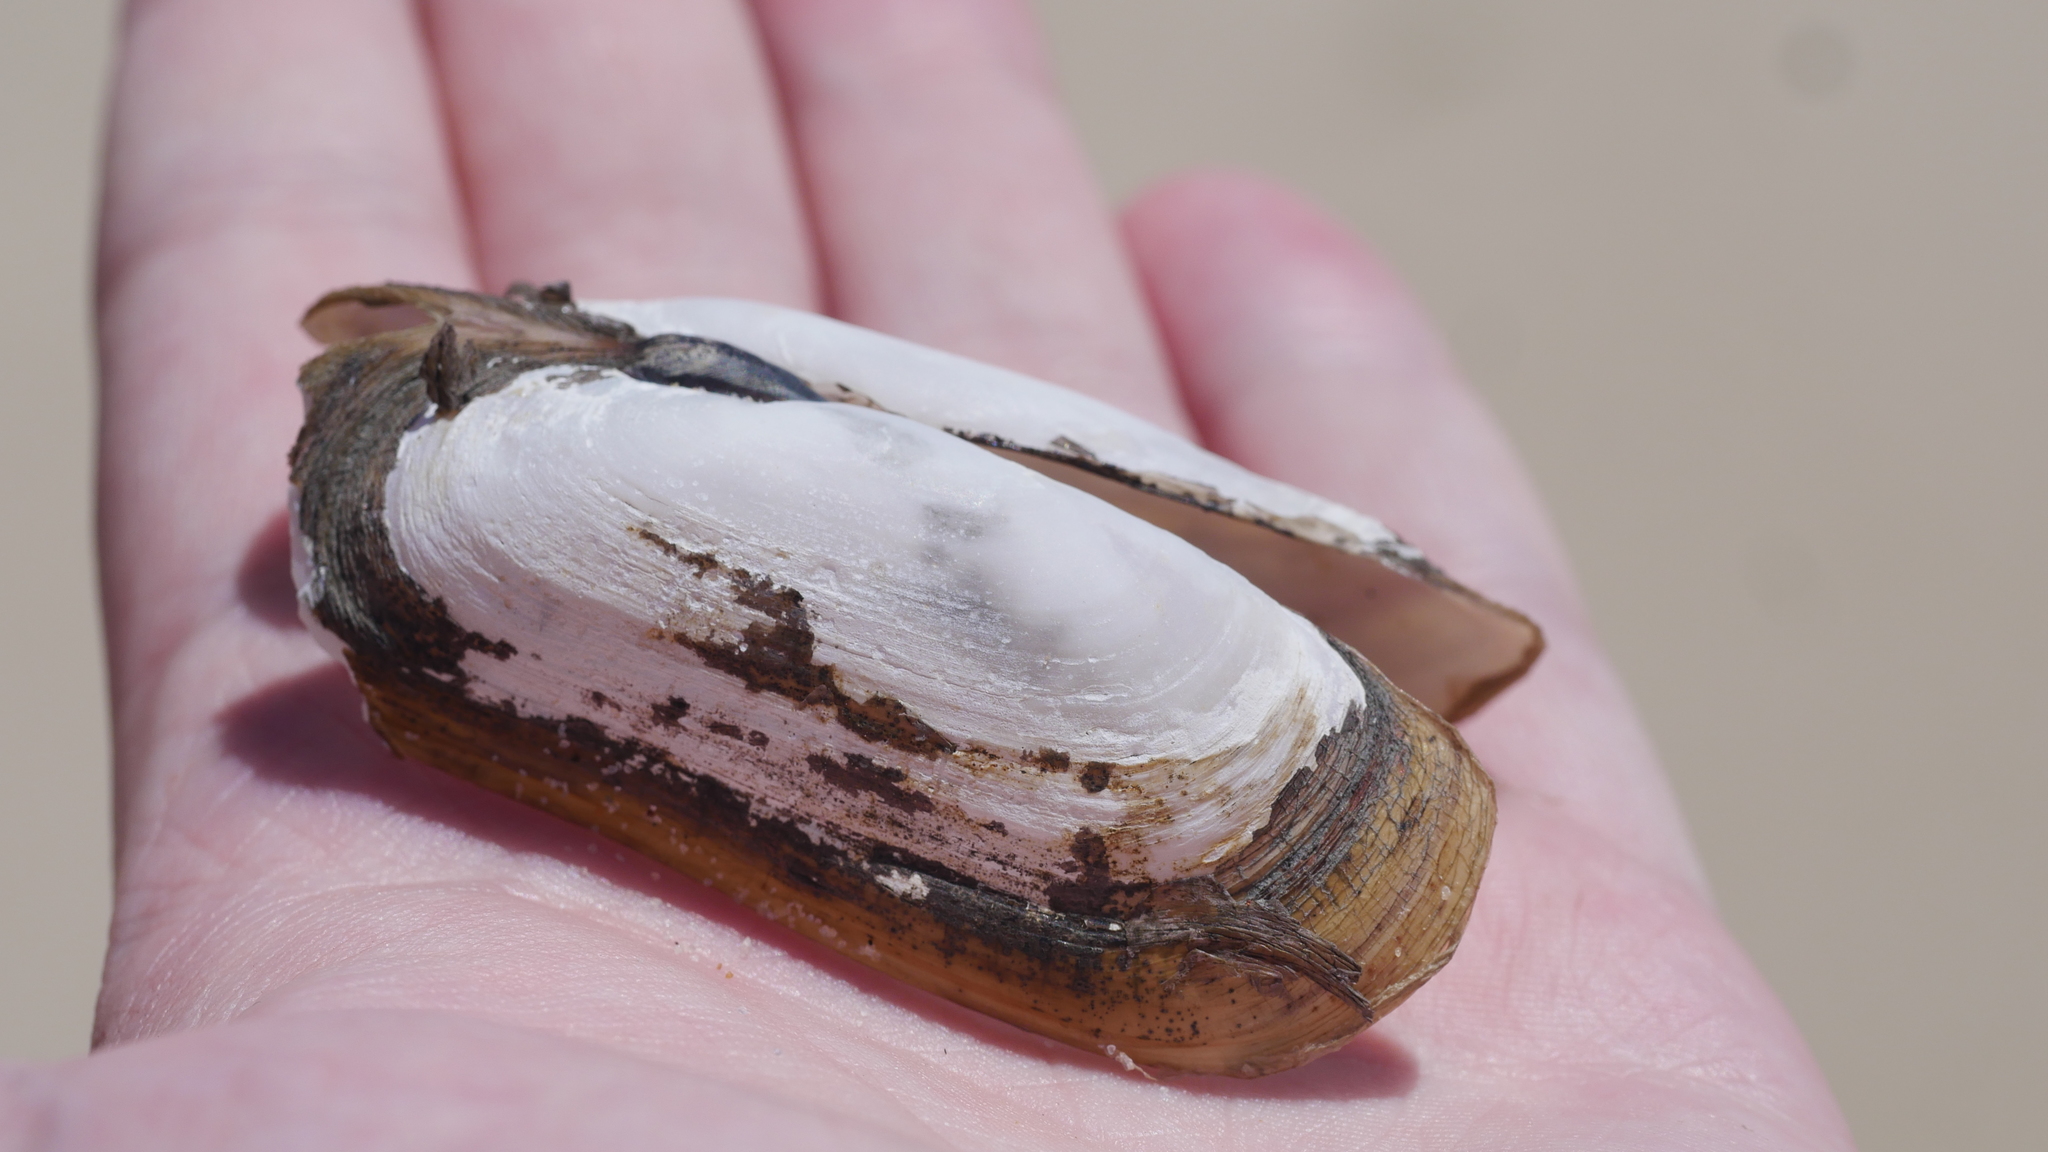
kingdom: Animalia
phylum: Mollusca
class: Bivalvia
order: Cardiida
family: Solecurtidae
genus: Tagelus
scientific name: Tagelus plebeius
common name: Stout tagelus
